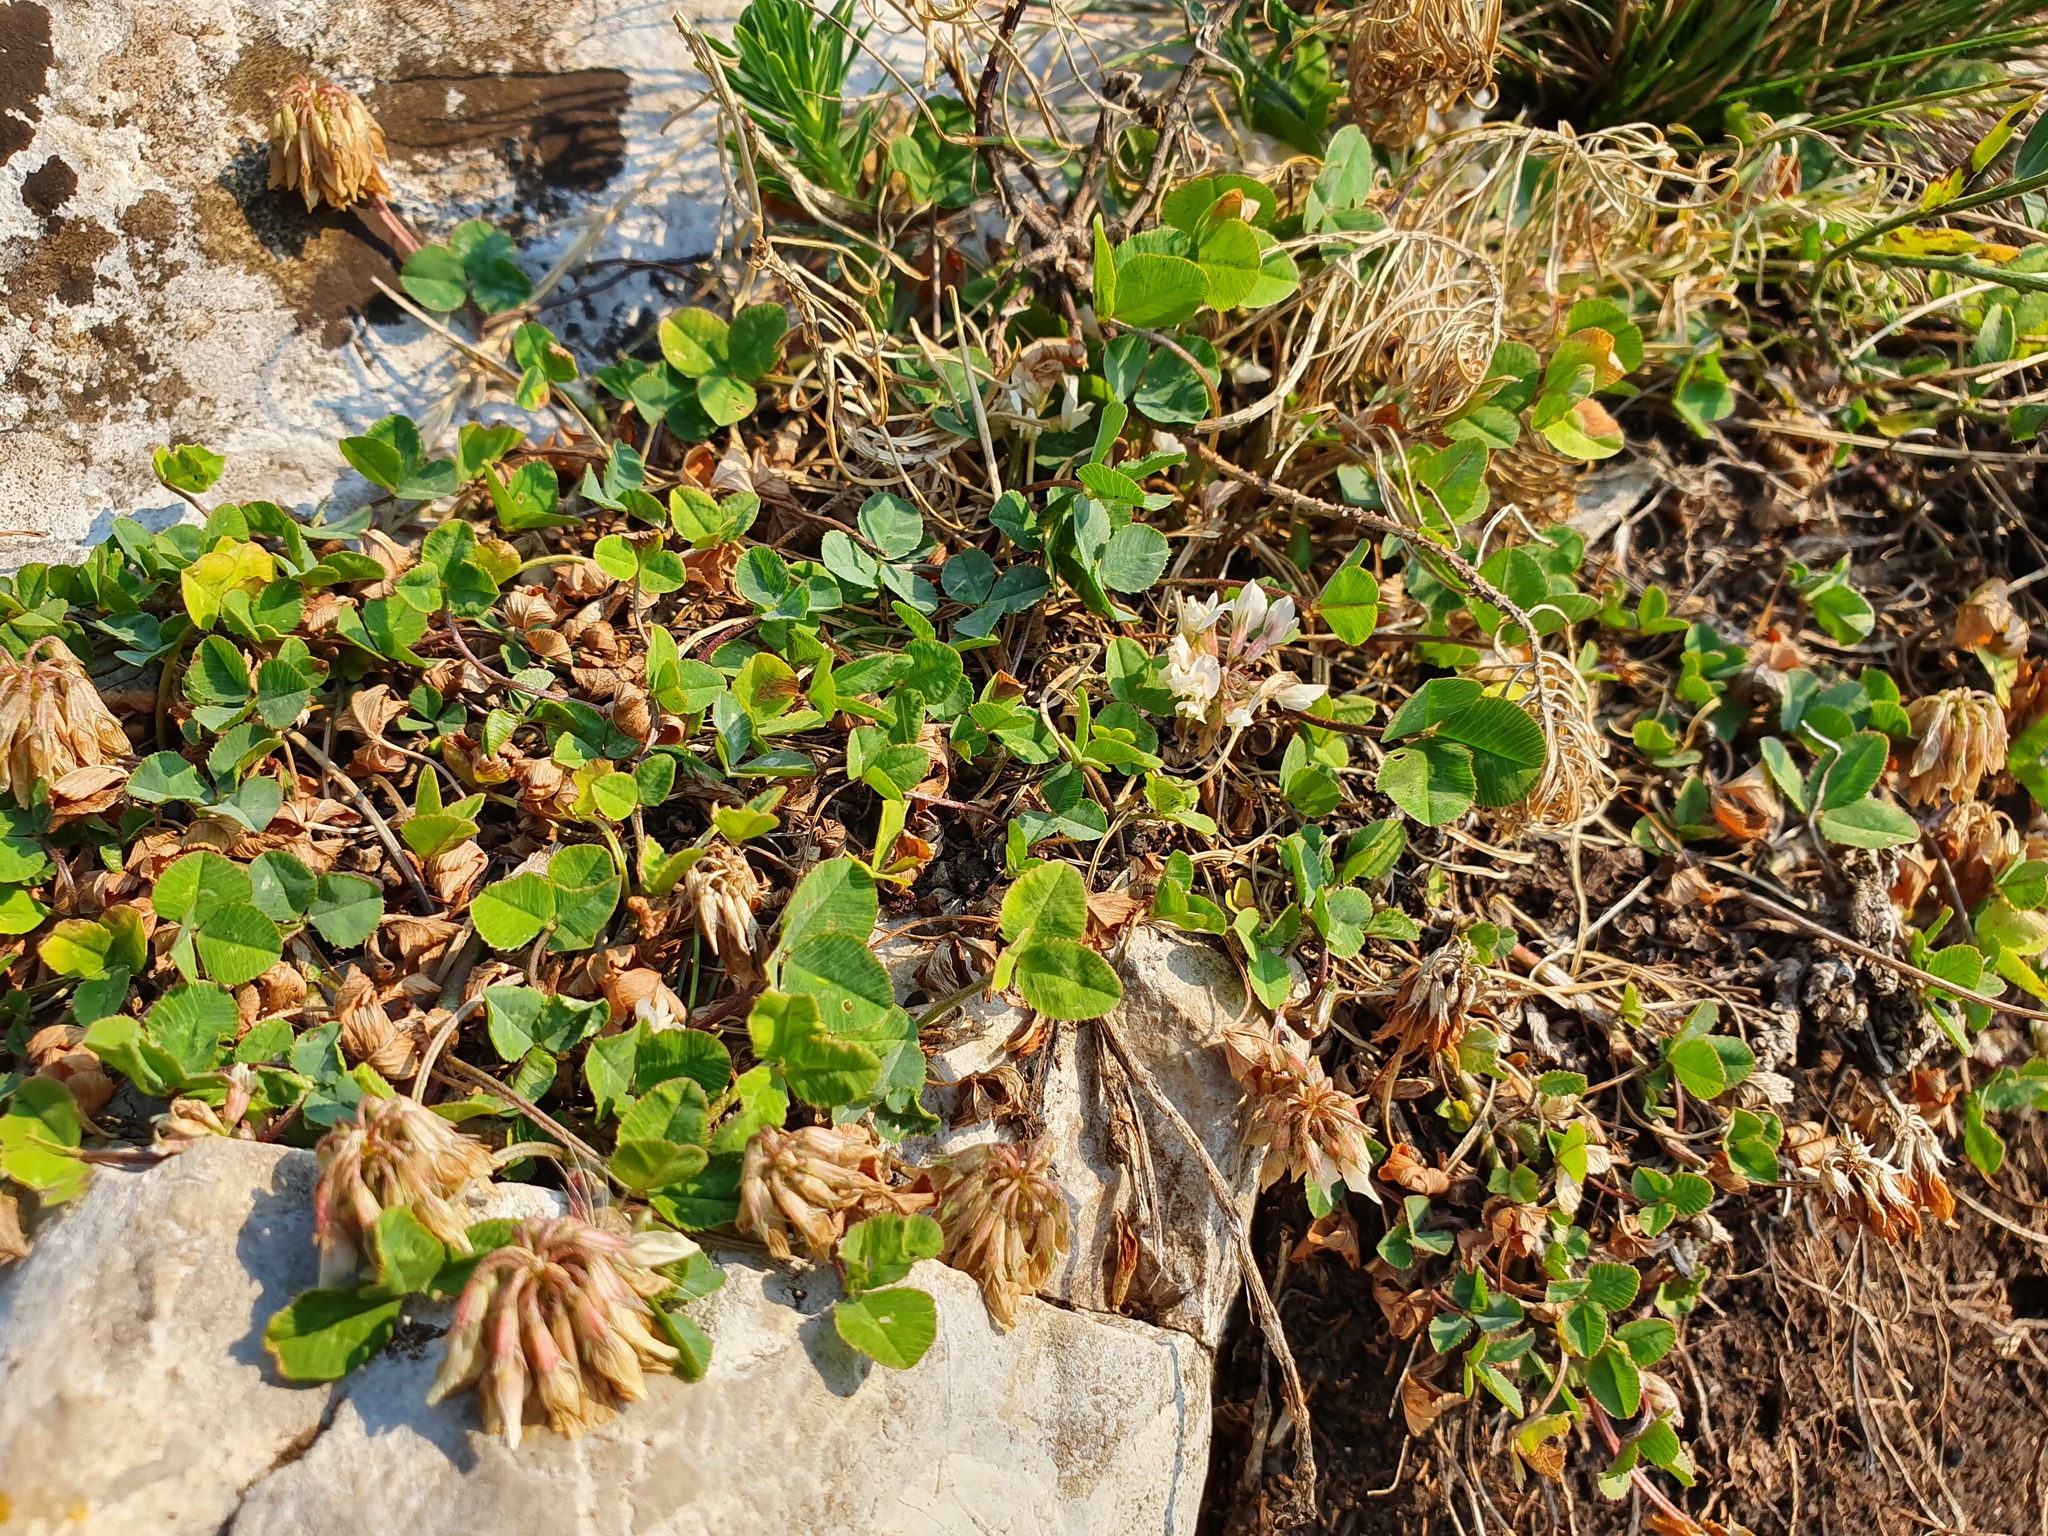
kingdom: Plantae
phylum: Tracheophyta
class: Magnoliopsida
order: Fabales
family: Fabaceae
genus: Trifolium
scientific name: Trifolium repens
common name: White clover
